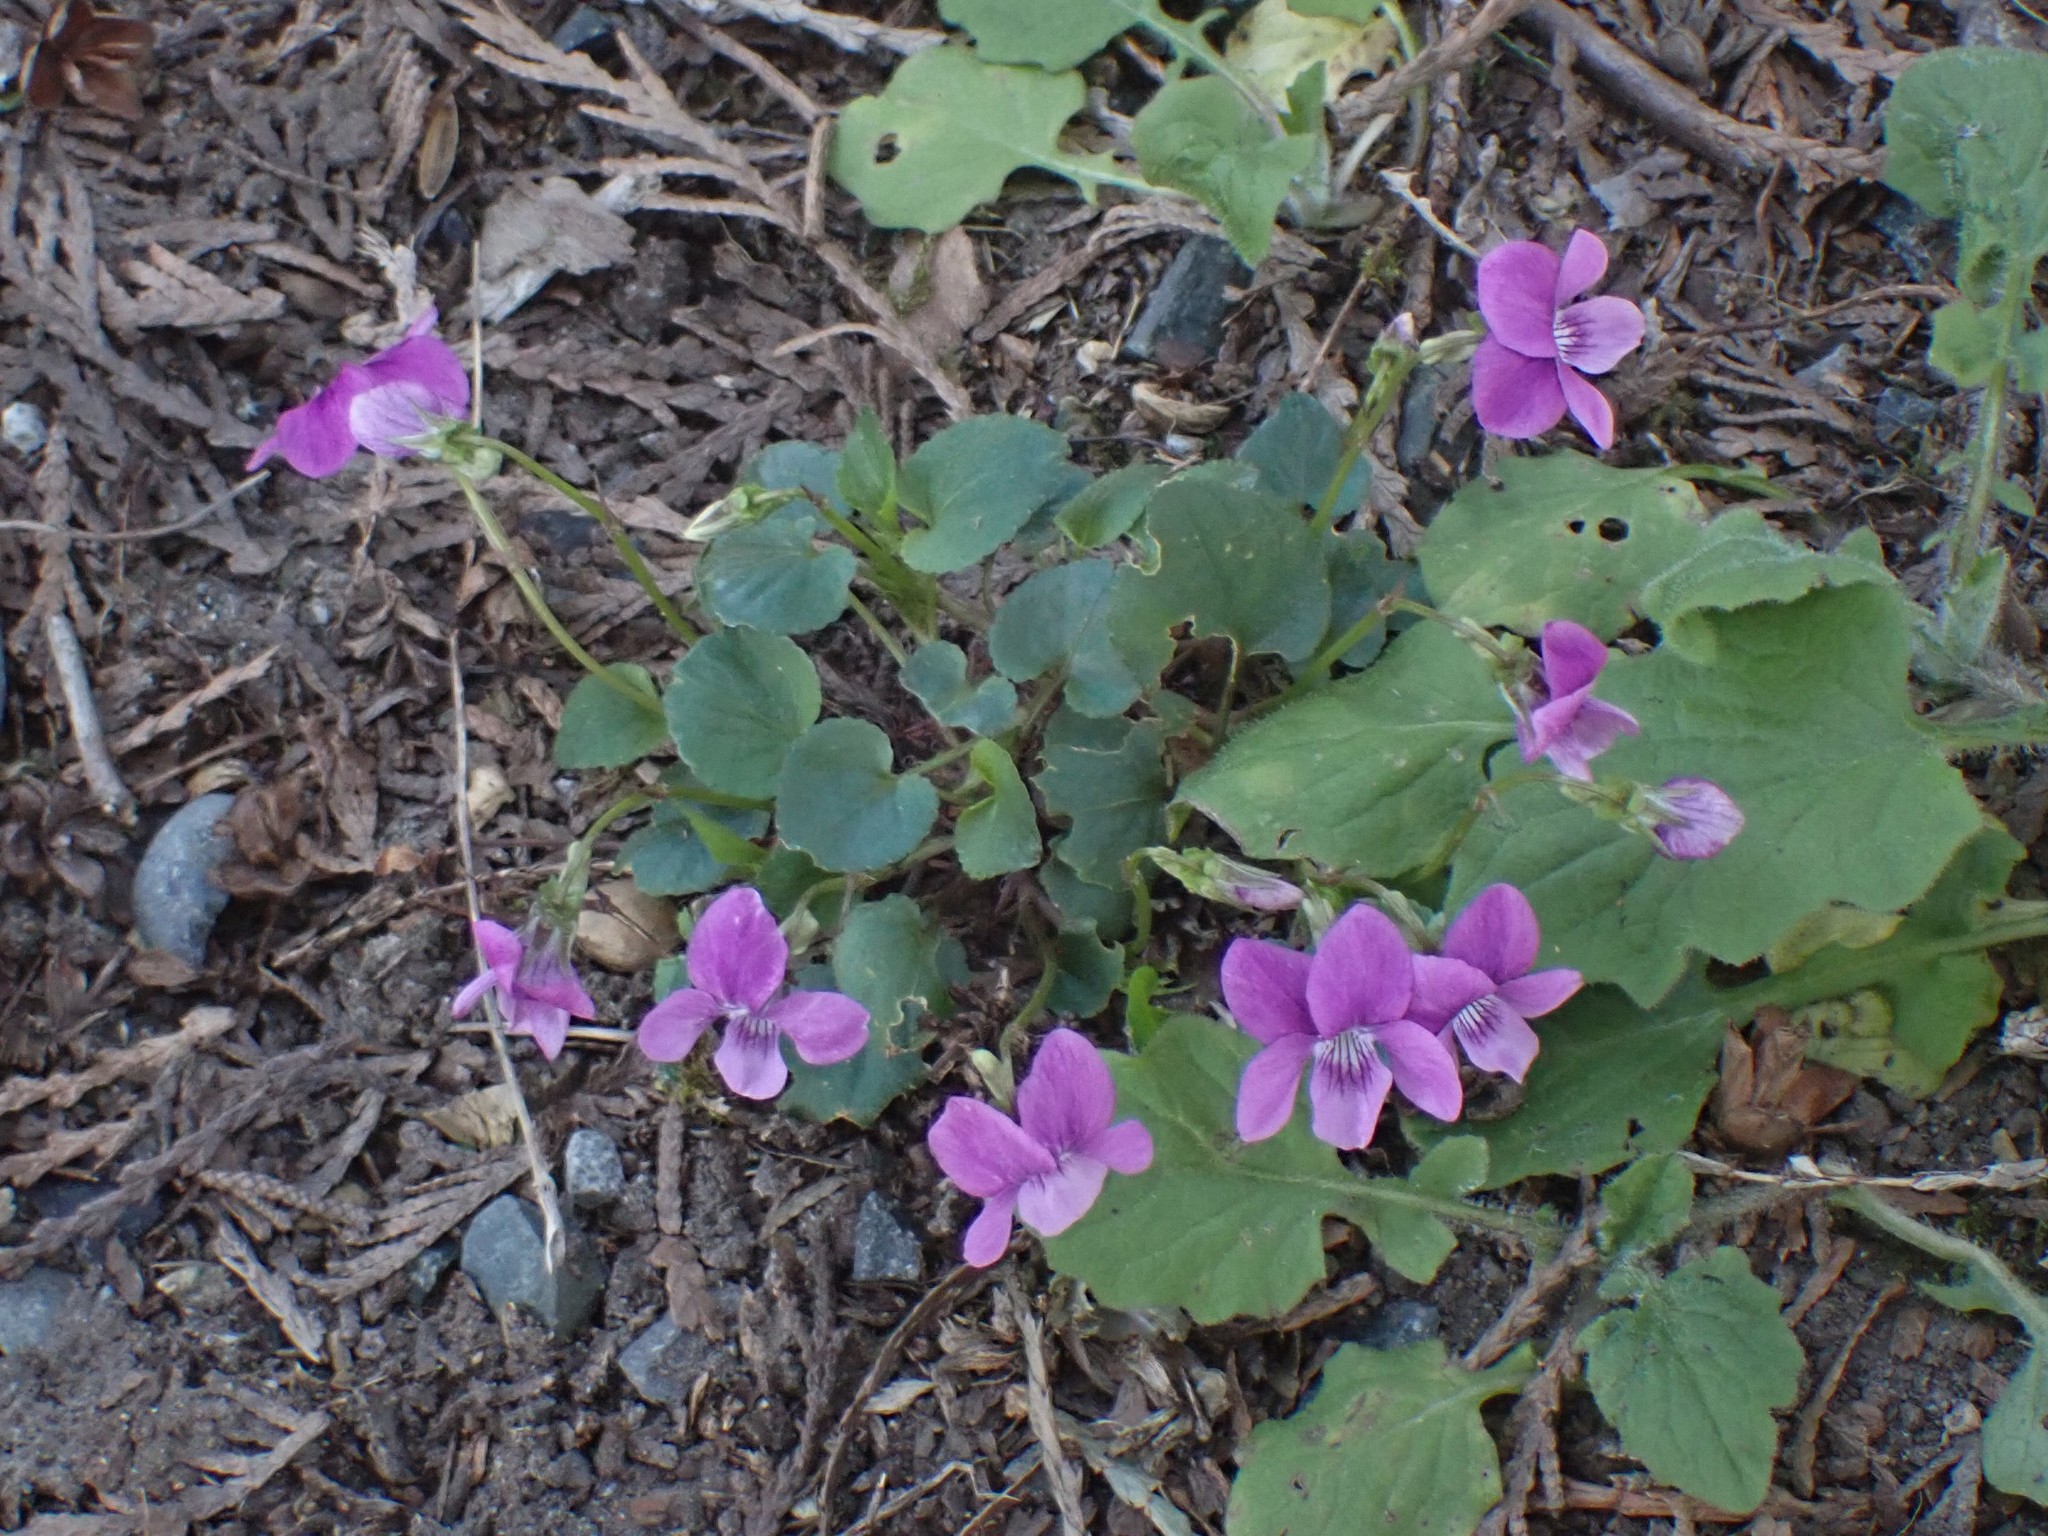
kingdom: Plantae
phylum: Tracheophyta
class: Magnoliopsida
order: Malpighiales
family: Violaceae
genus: Viola
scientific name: Viola riviniana
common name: Common dog-violet
